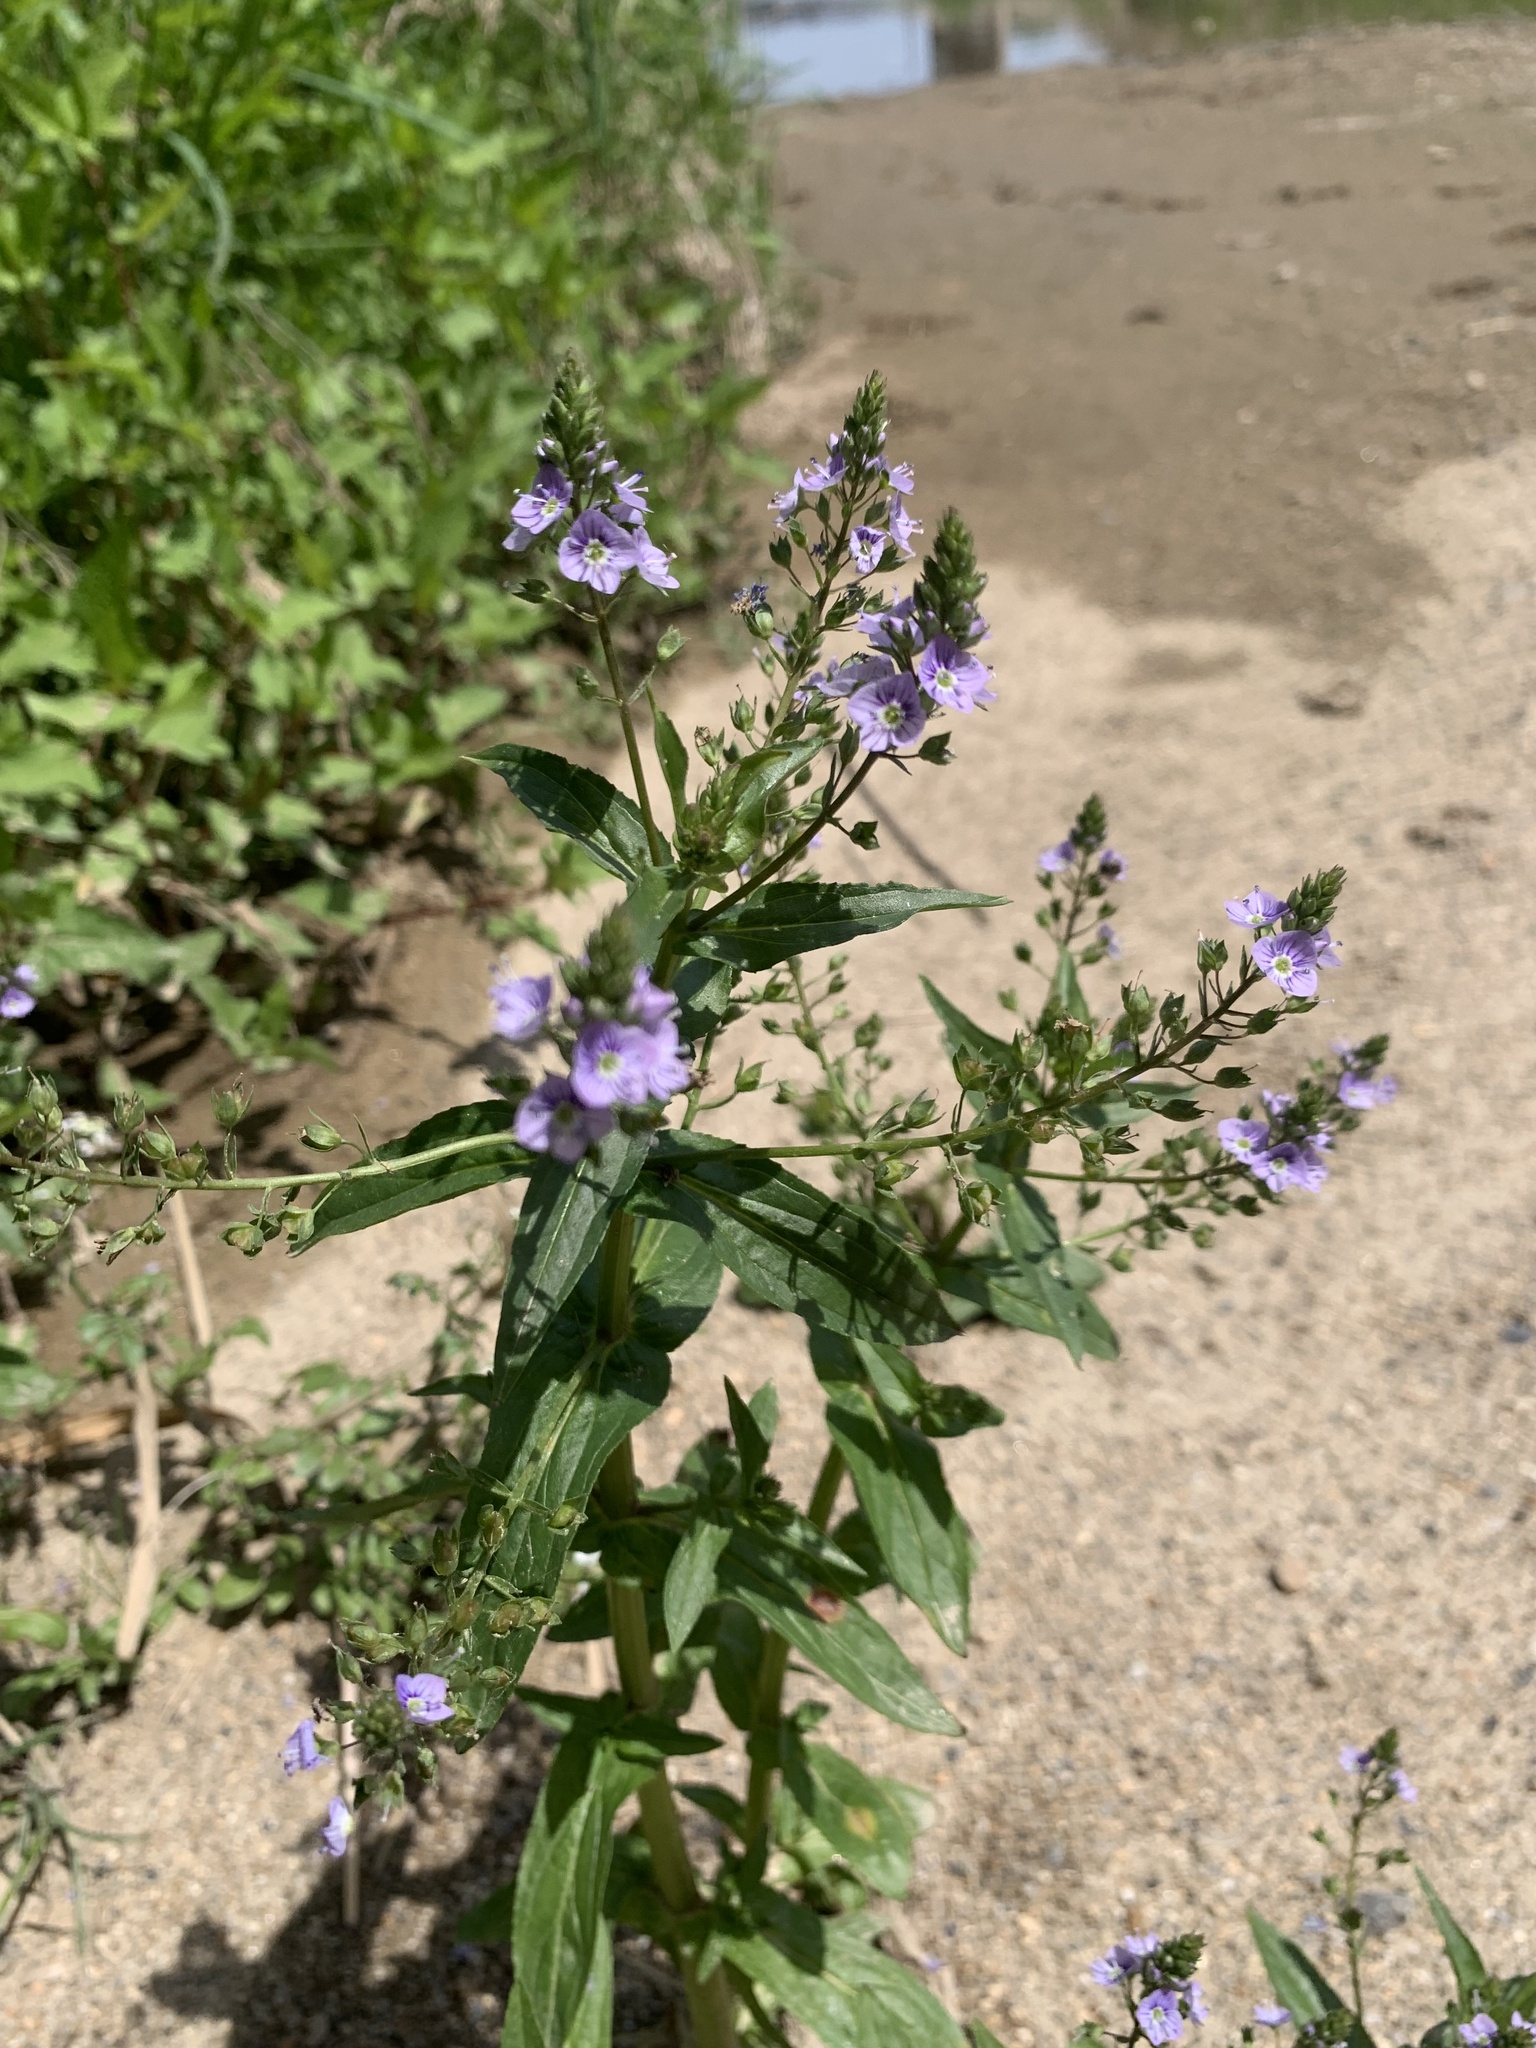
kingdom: Plantae
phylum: Tracheophyta
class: Magnoliopsida
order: Lamiales
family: Plantaginaceae
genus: Veronica
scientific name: Veronica anagallis-aquatica
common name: Water speedwell
